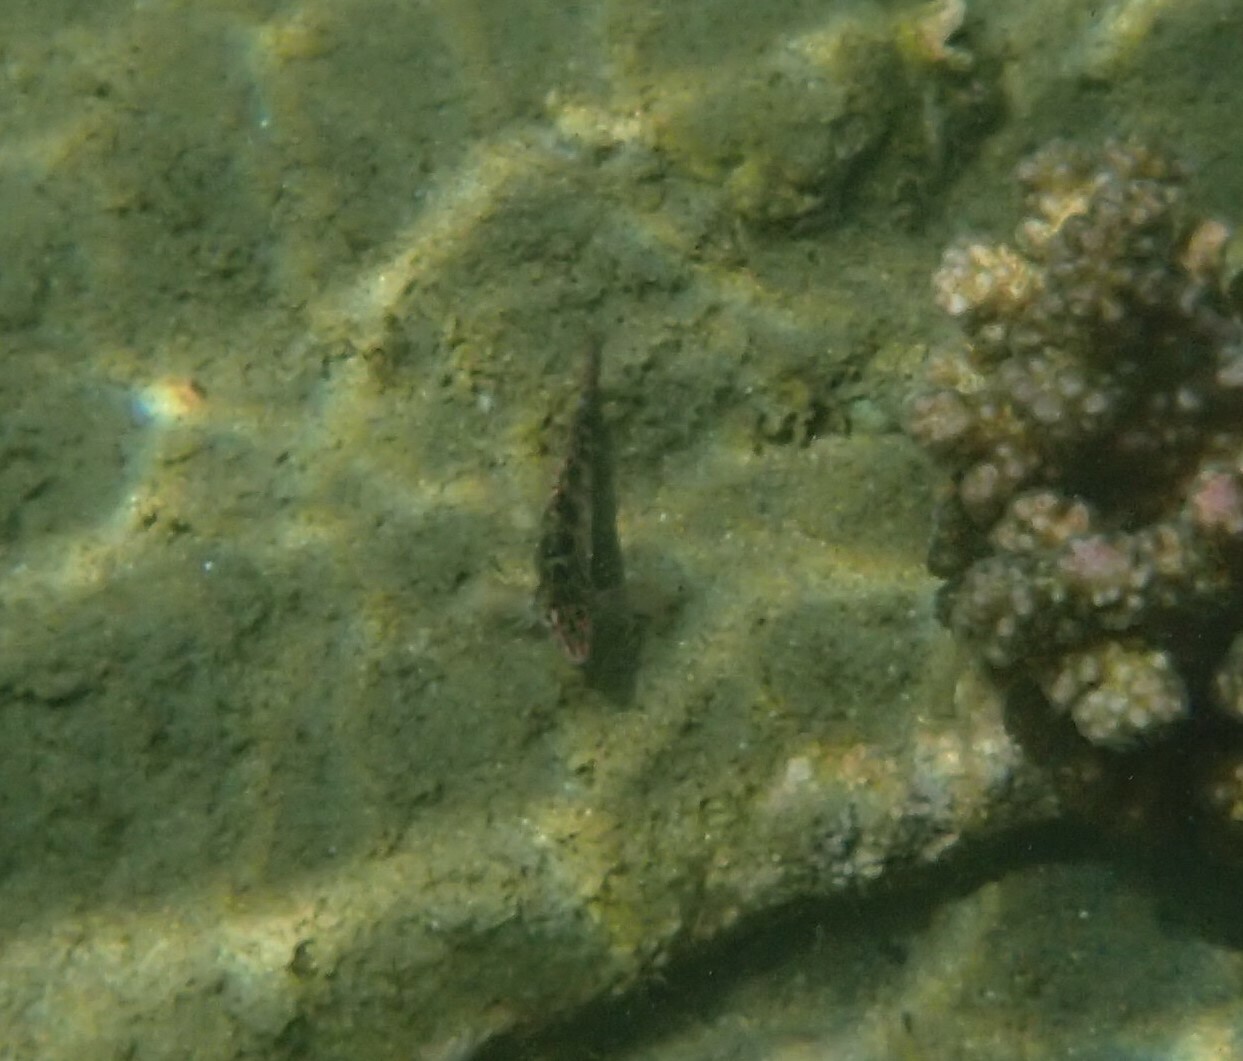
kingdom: Animalia
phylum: Chordata
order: Perciformes
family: Cirrhitidae
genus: Cirrhitichthys
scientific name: Cirrhitichthys oxycephalus
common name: Spotted hawkfish
